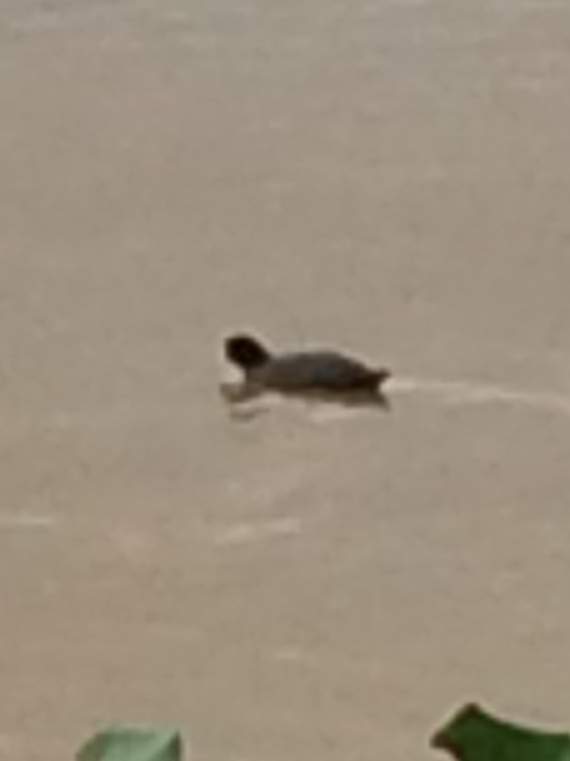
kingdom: Animalia
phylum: Chordata
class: Aves
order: Gruiformes
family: Rallidae
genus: Fulica
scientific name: Fulica atra
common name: Eurasian coot
